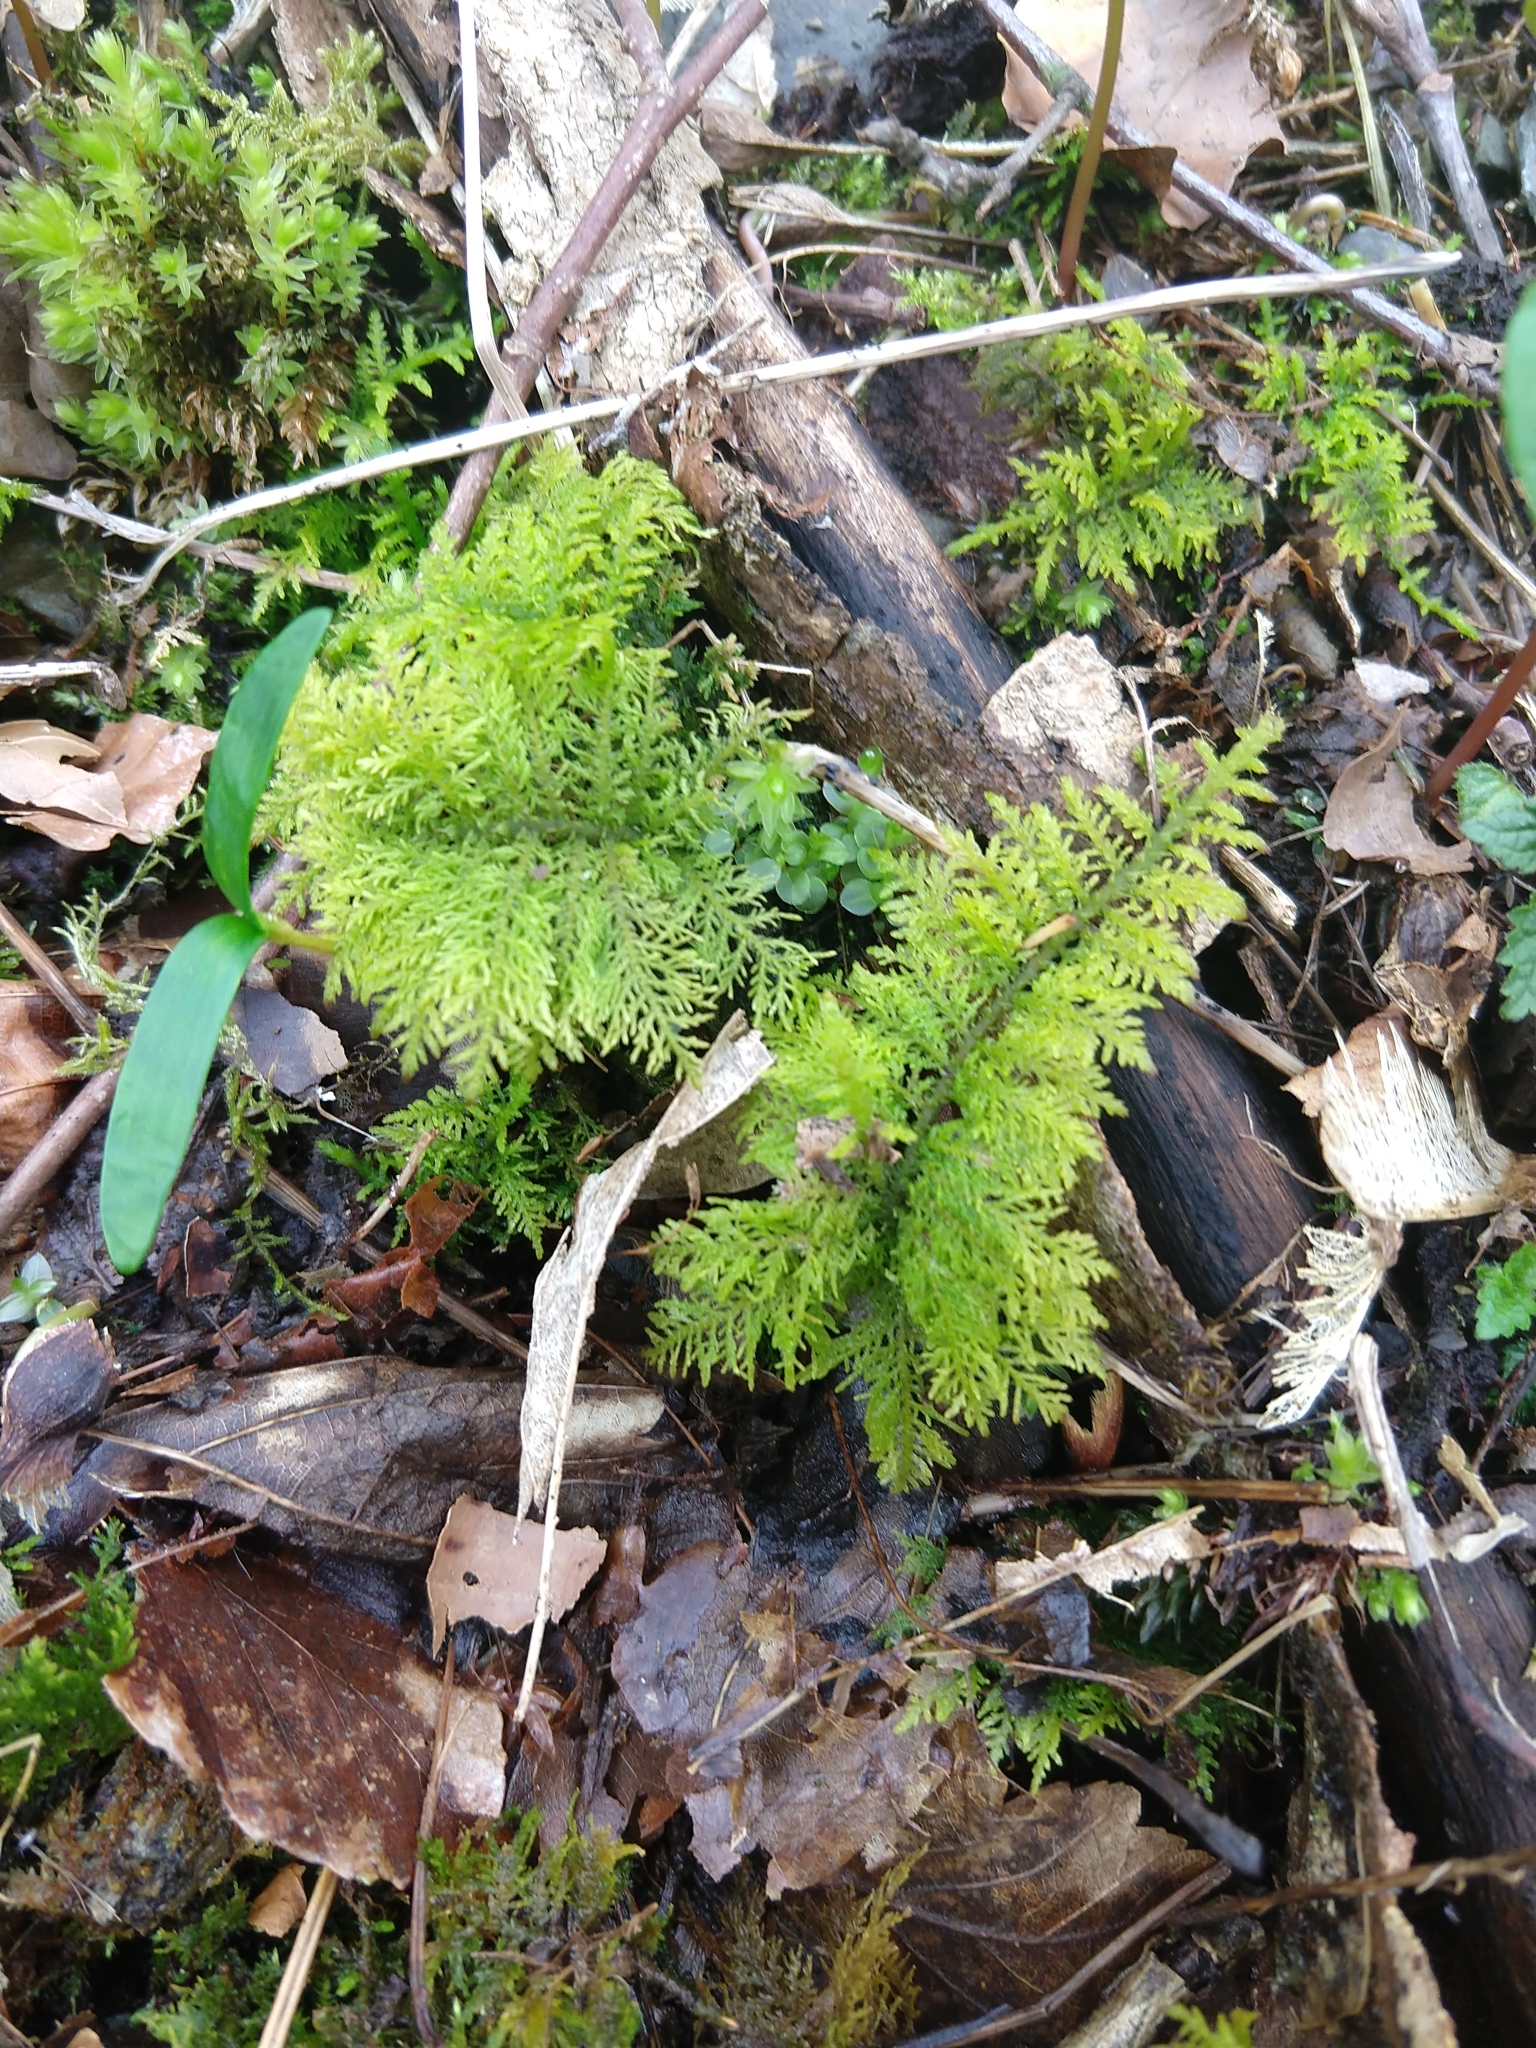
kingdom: Plantae
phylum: Bryophyta
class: Bryopsida
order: Hypnales
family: Thuidiaceae
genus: Thuidium
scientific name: Thuidium tamariscinum
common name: Common tamarisk-moss
